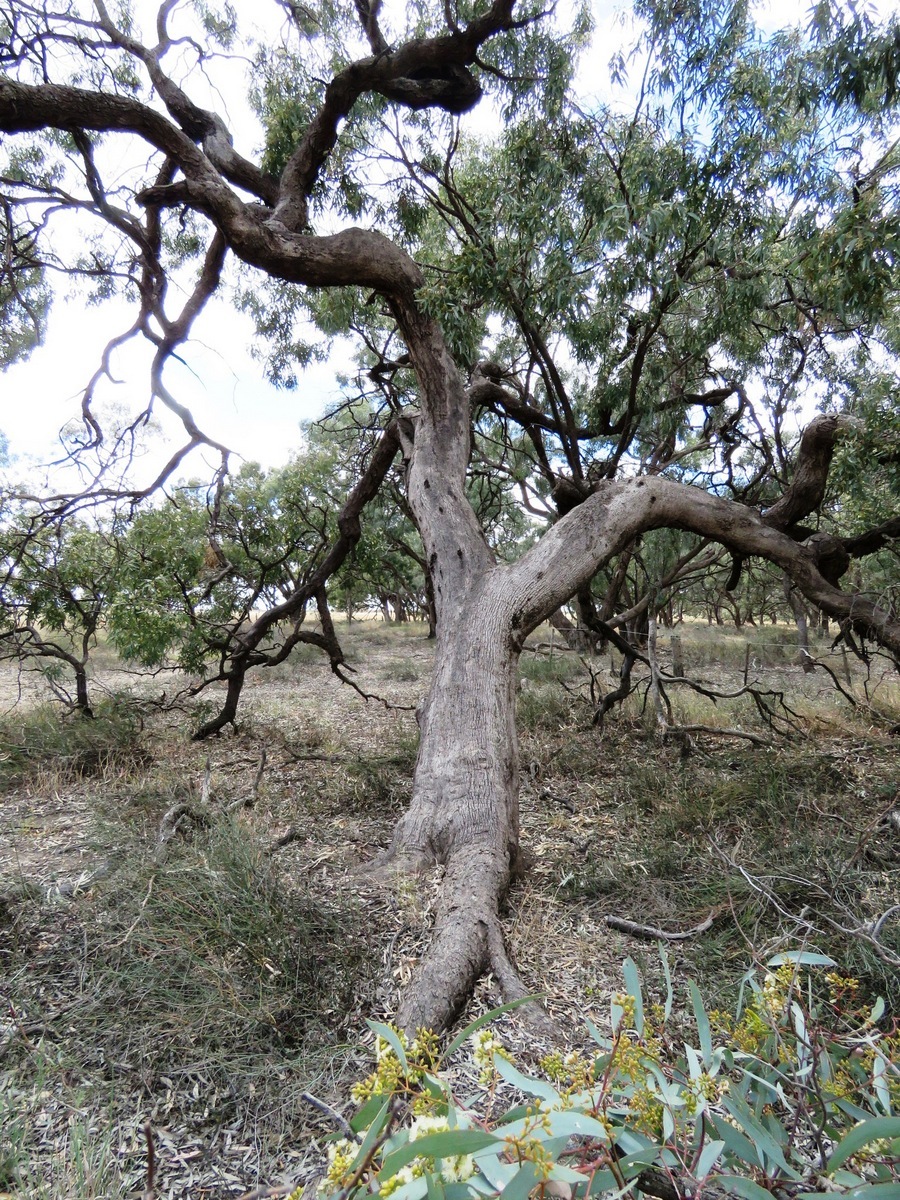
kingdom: Plantae
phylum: Tracheophyta
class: Magnoliopsida
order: Myrtales
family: Myrtaceae
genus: Eucalyptus
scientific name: Eucalyptus largiflorens
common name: Black-box
